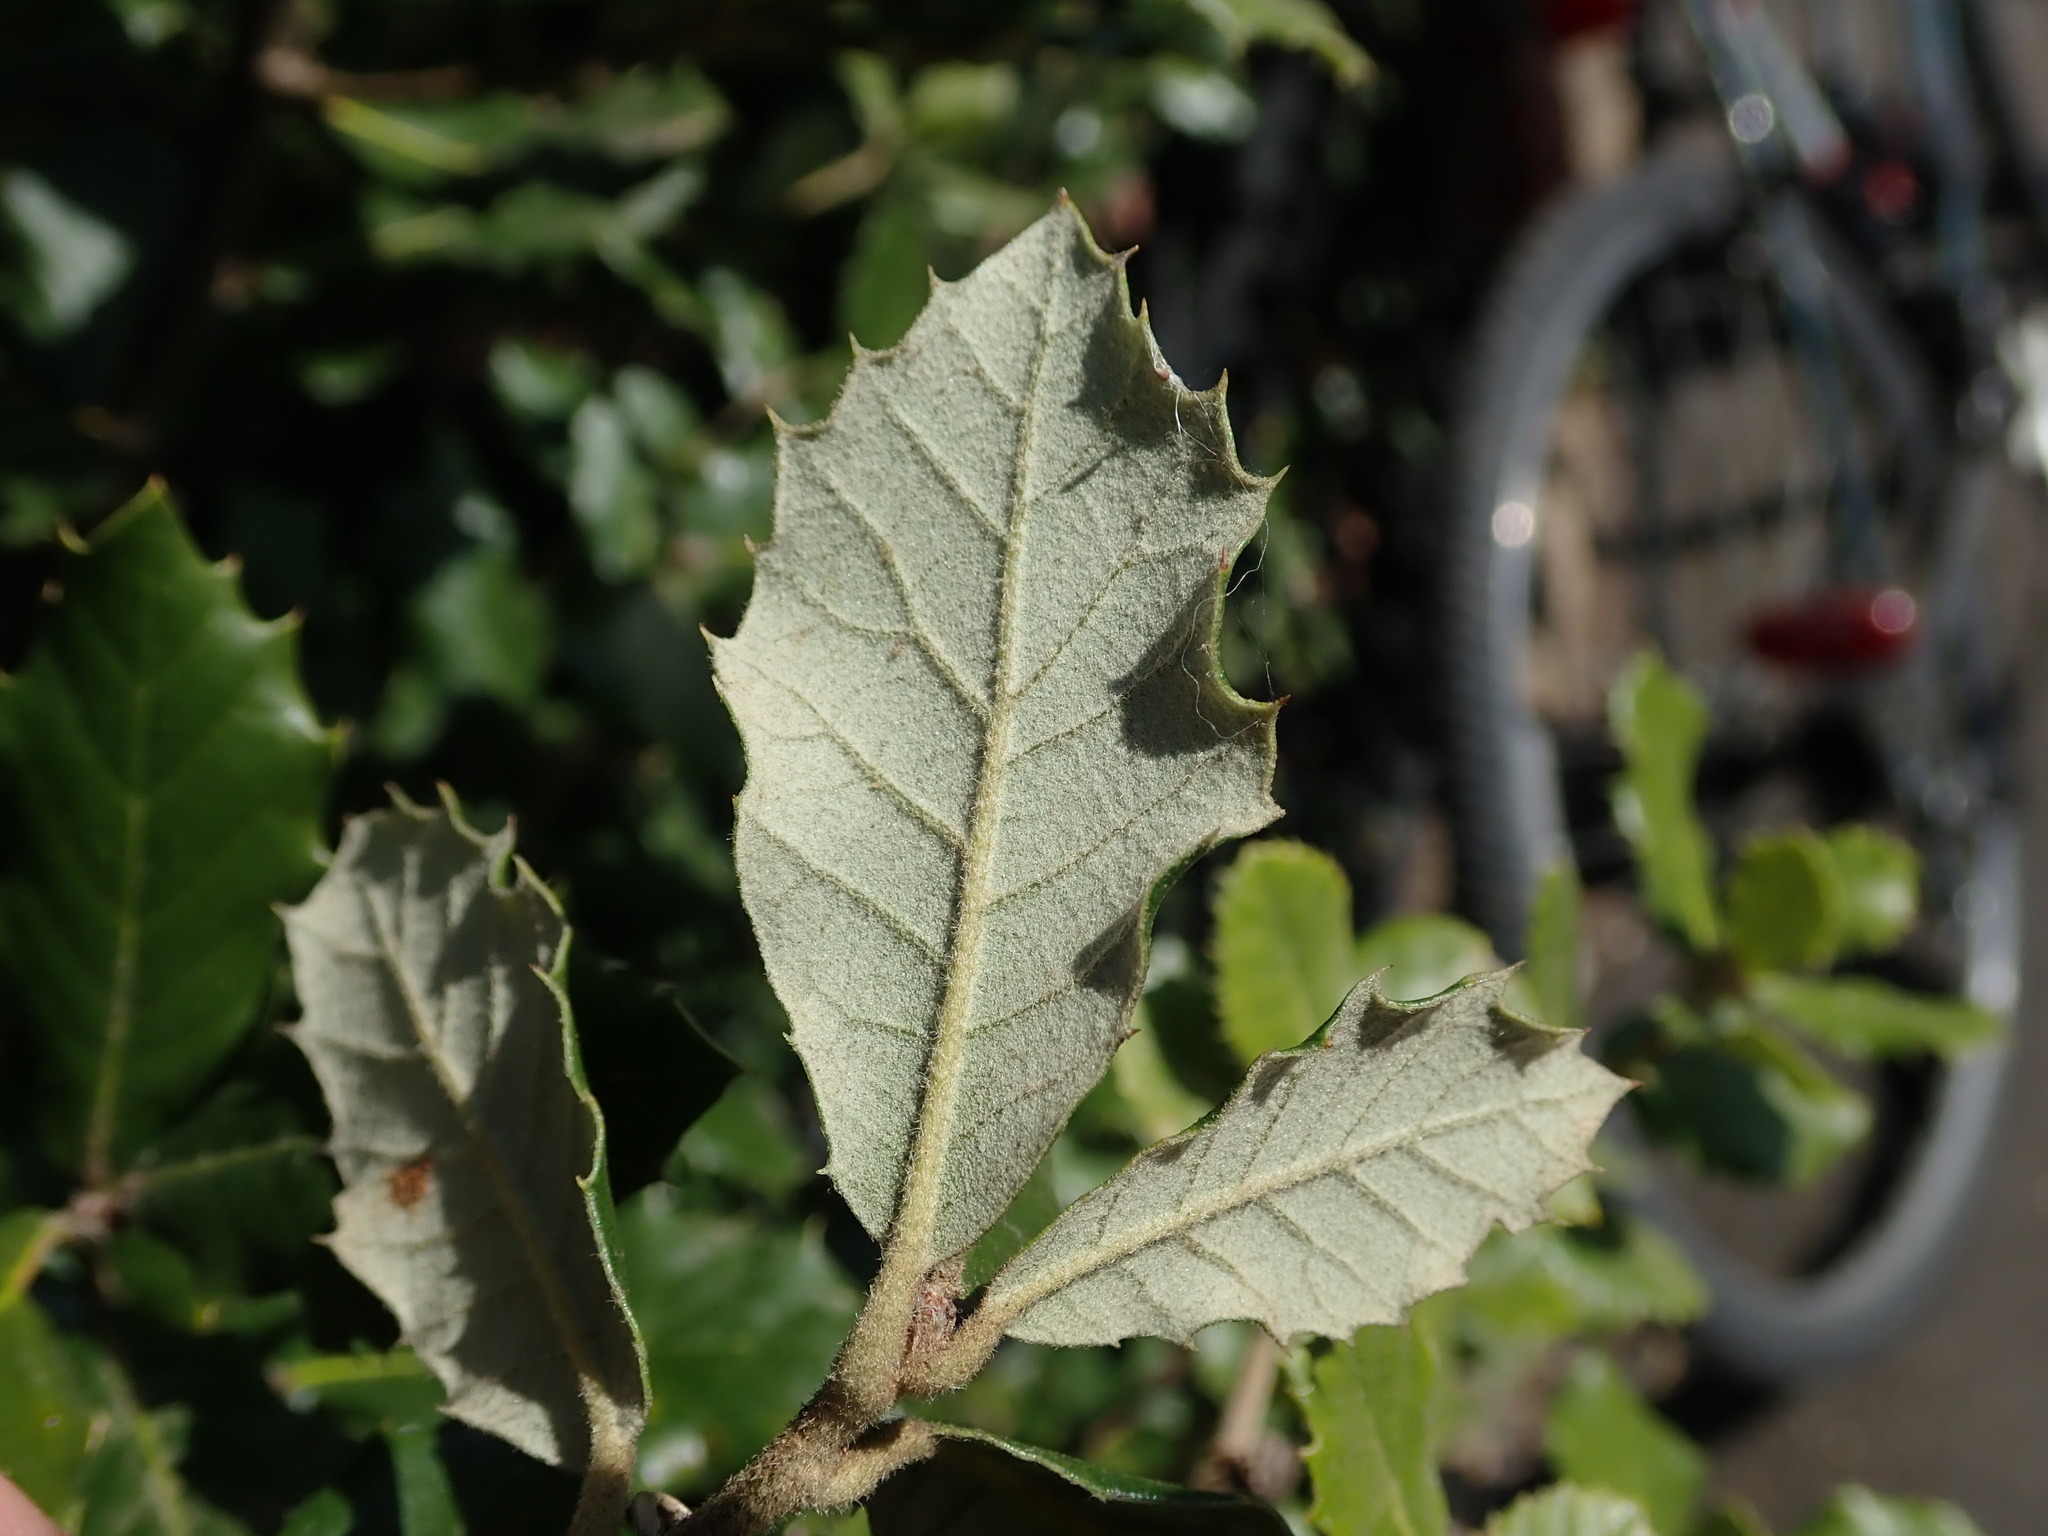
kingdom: Plantae
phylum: Tracheophyta
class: Magnoliopsida
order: Fagales
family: Fagaceae
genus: Quercus
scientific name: Quercus ilex
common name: Evergreen oak
